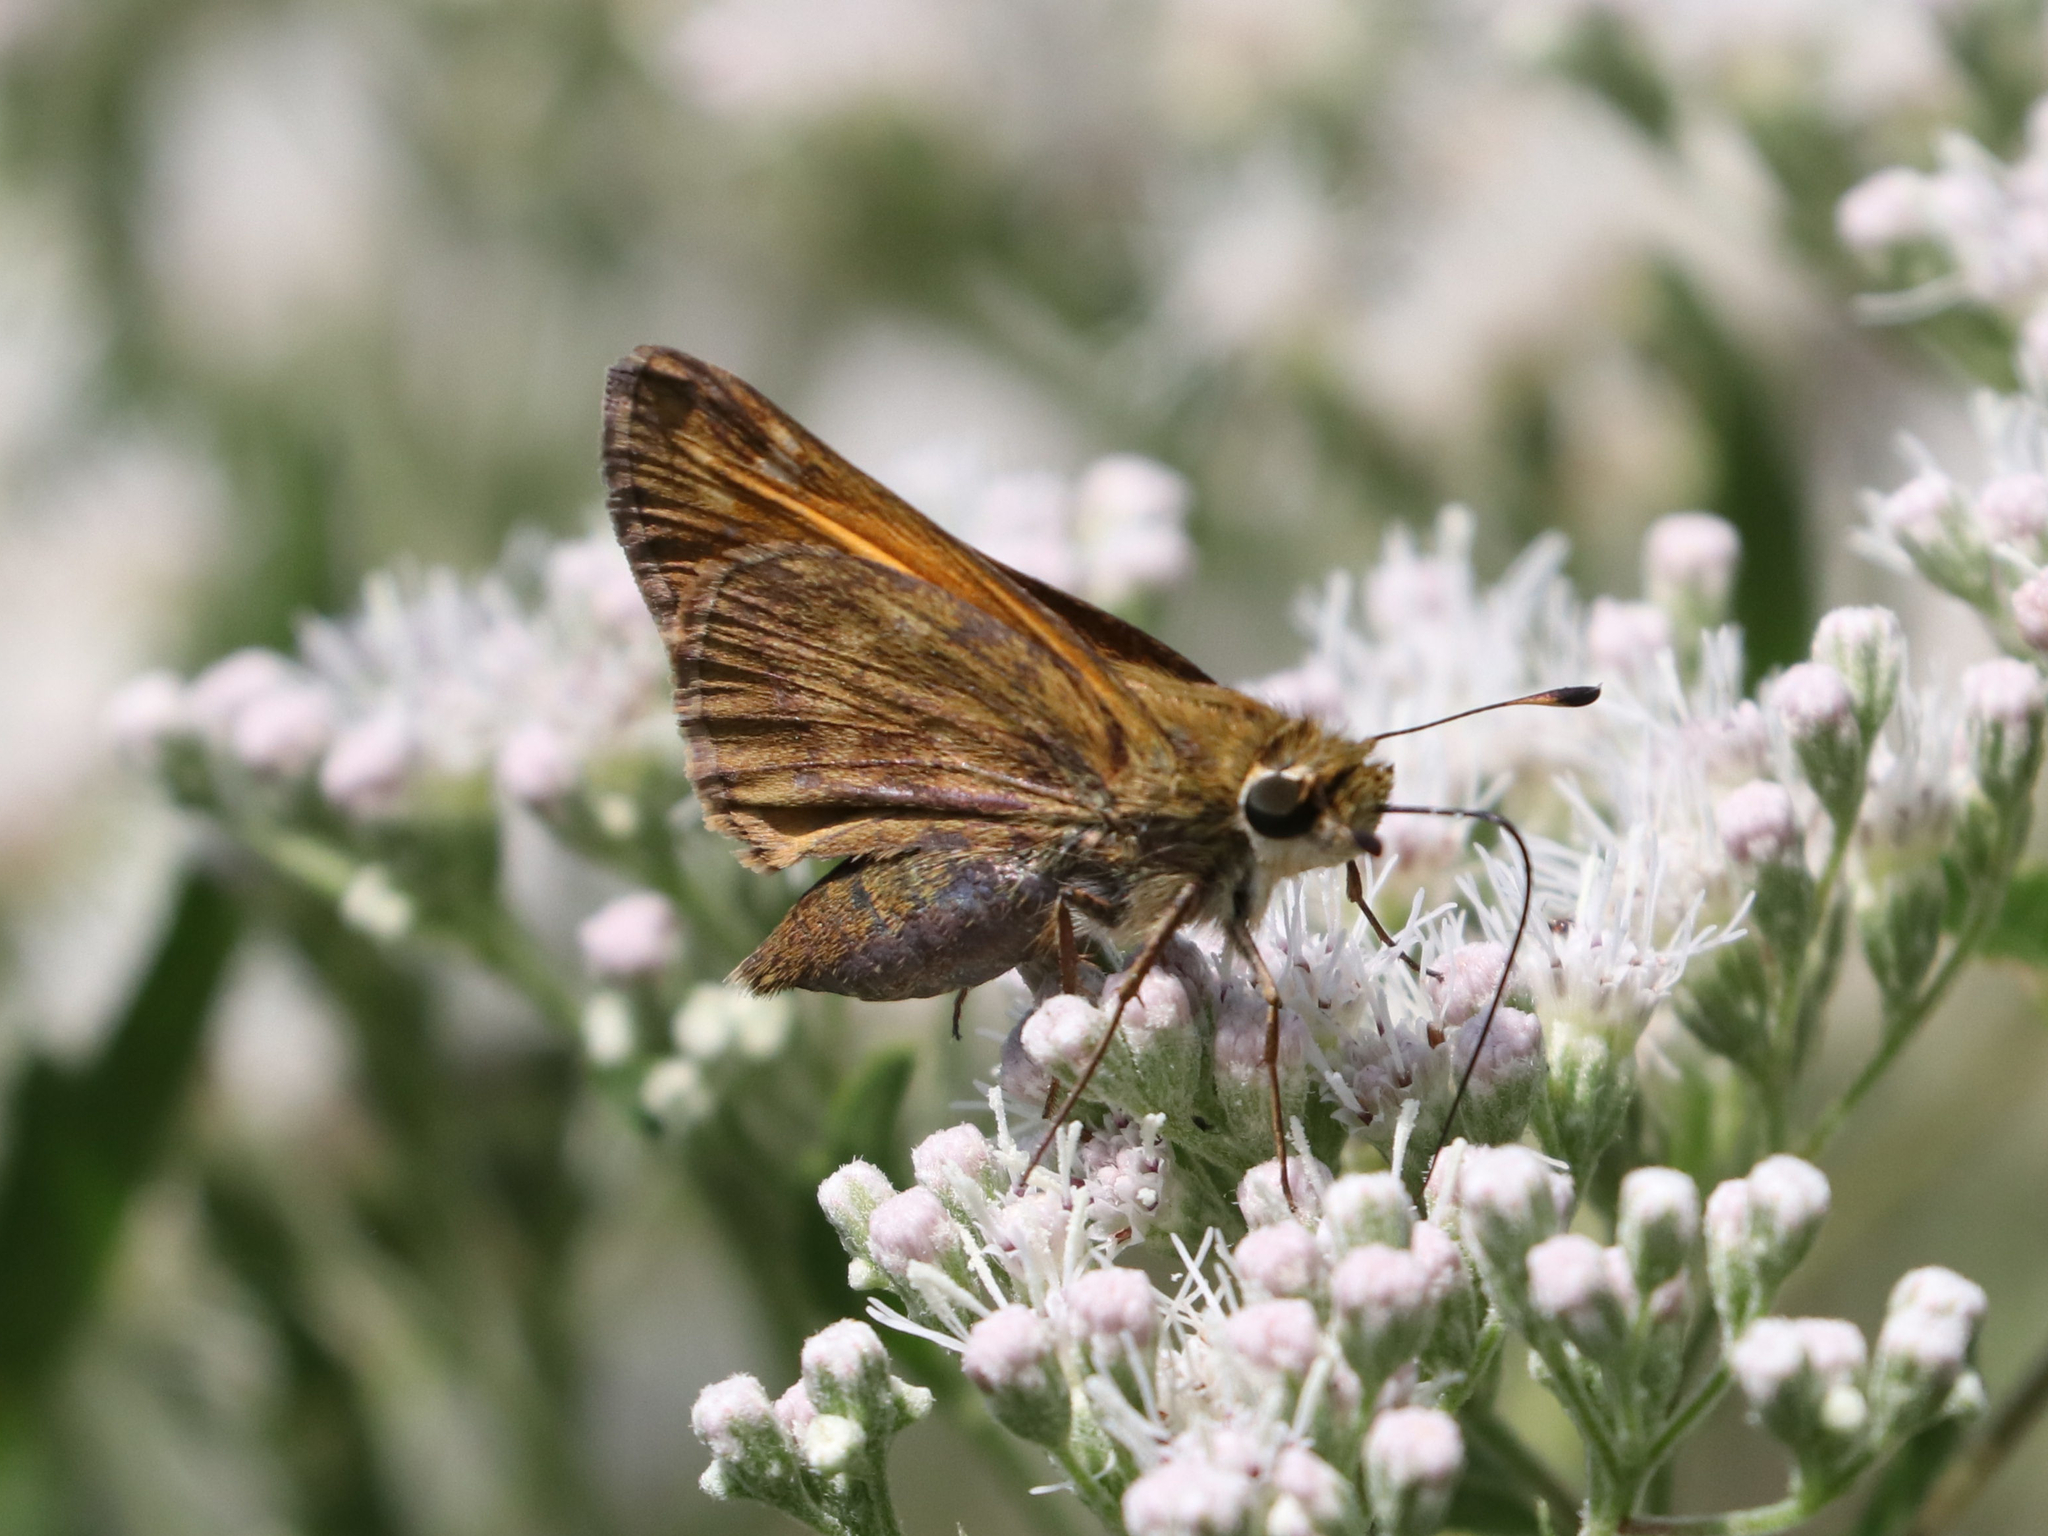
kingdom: Animalia
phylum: Arthropoda
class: Insecta
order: Lepidoptera
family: Hesperiidae
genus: Atalopedes
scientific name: Atalopedes
